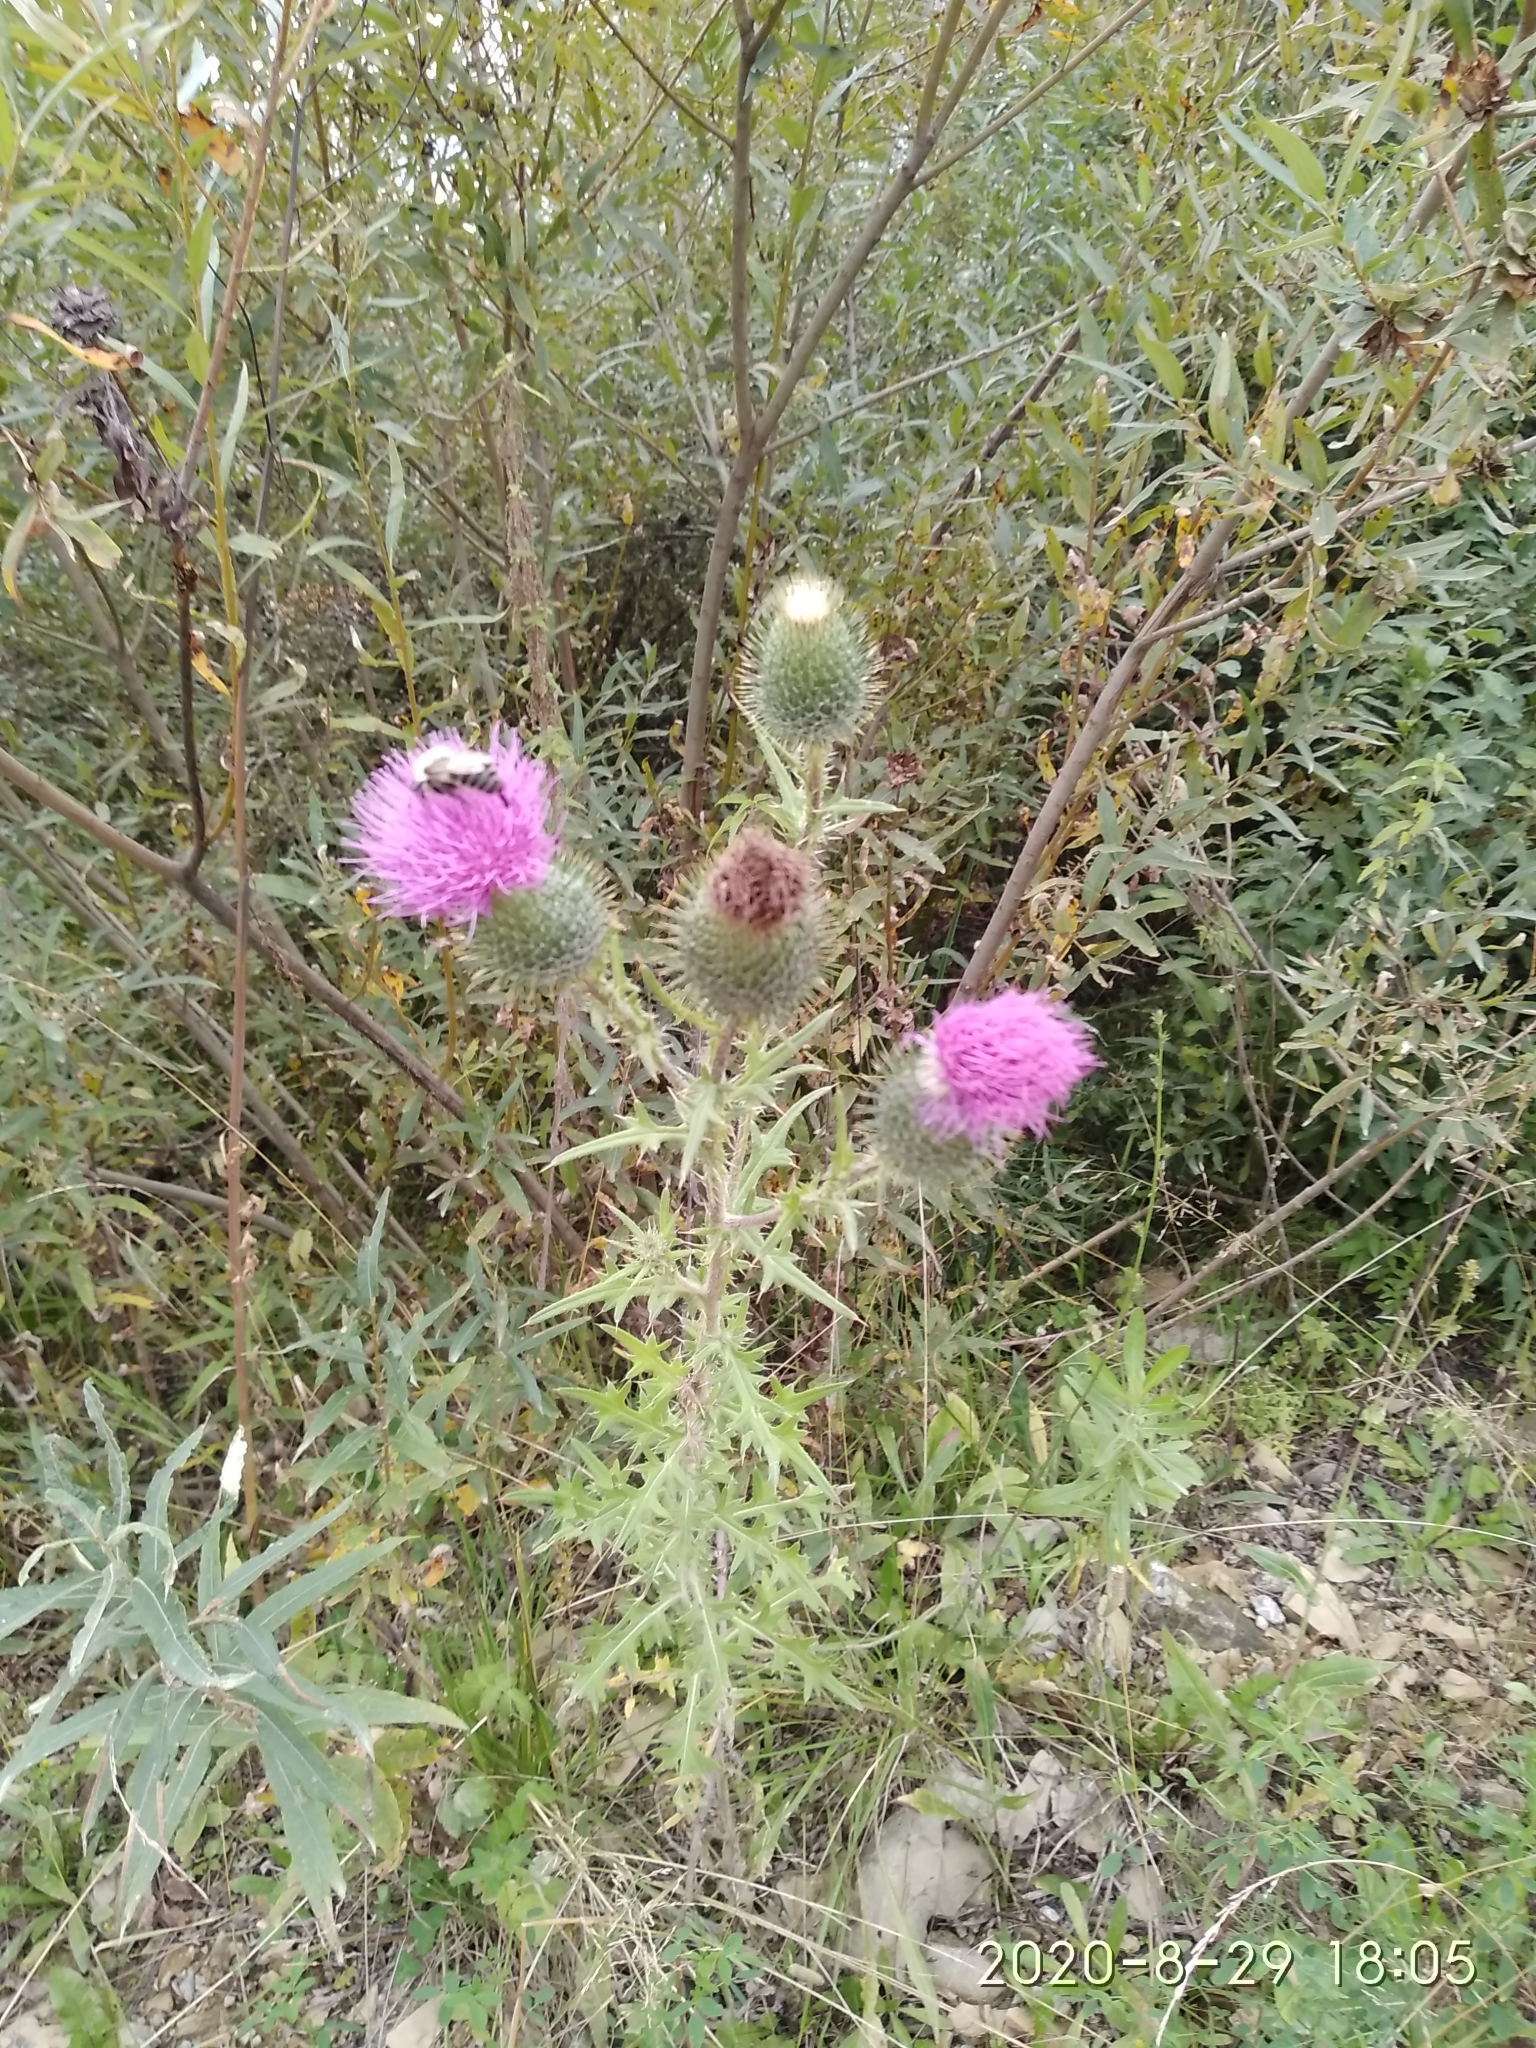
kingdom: Plantae
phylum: Tracheophyta
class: Magnoliopsida
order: Asterales
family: Asteraceae
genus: Cirsium
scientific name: Cirsium vulgare
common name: Bull thistle
